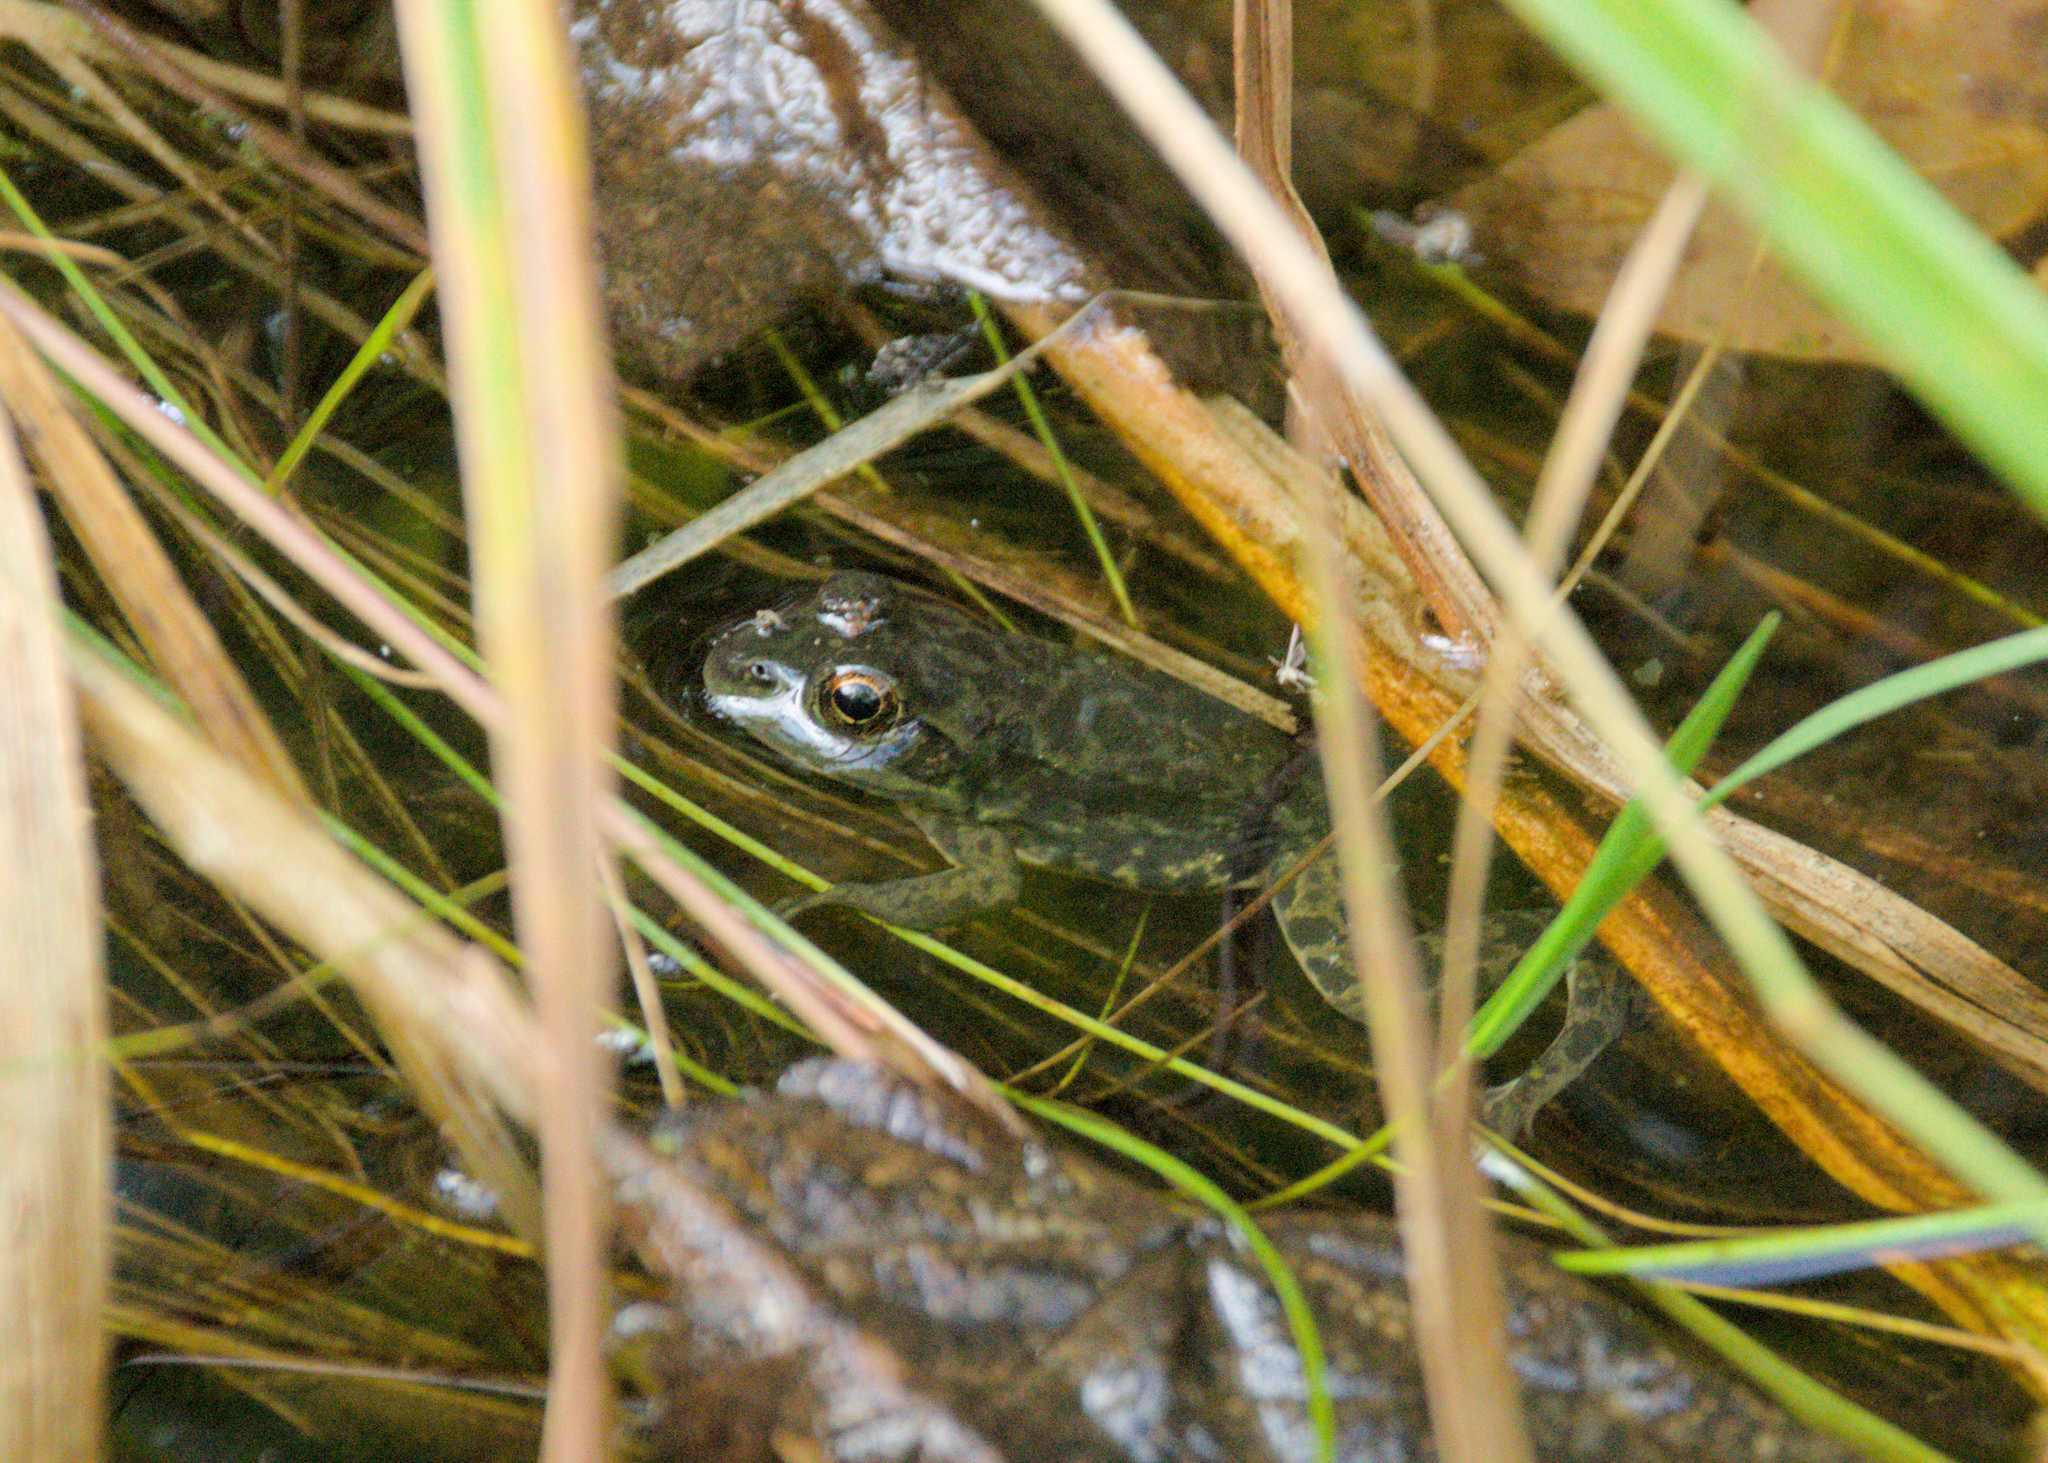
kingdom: Animalia
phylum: Chordata
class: Amphibia
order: Anura
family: Ranidae
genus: Lithobates
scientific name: Lithobates septentrionalis
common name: Mink frog
